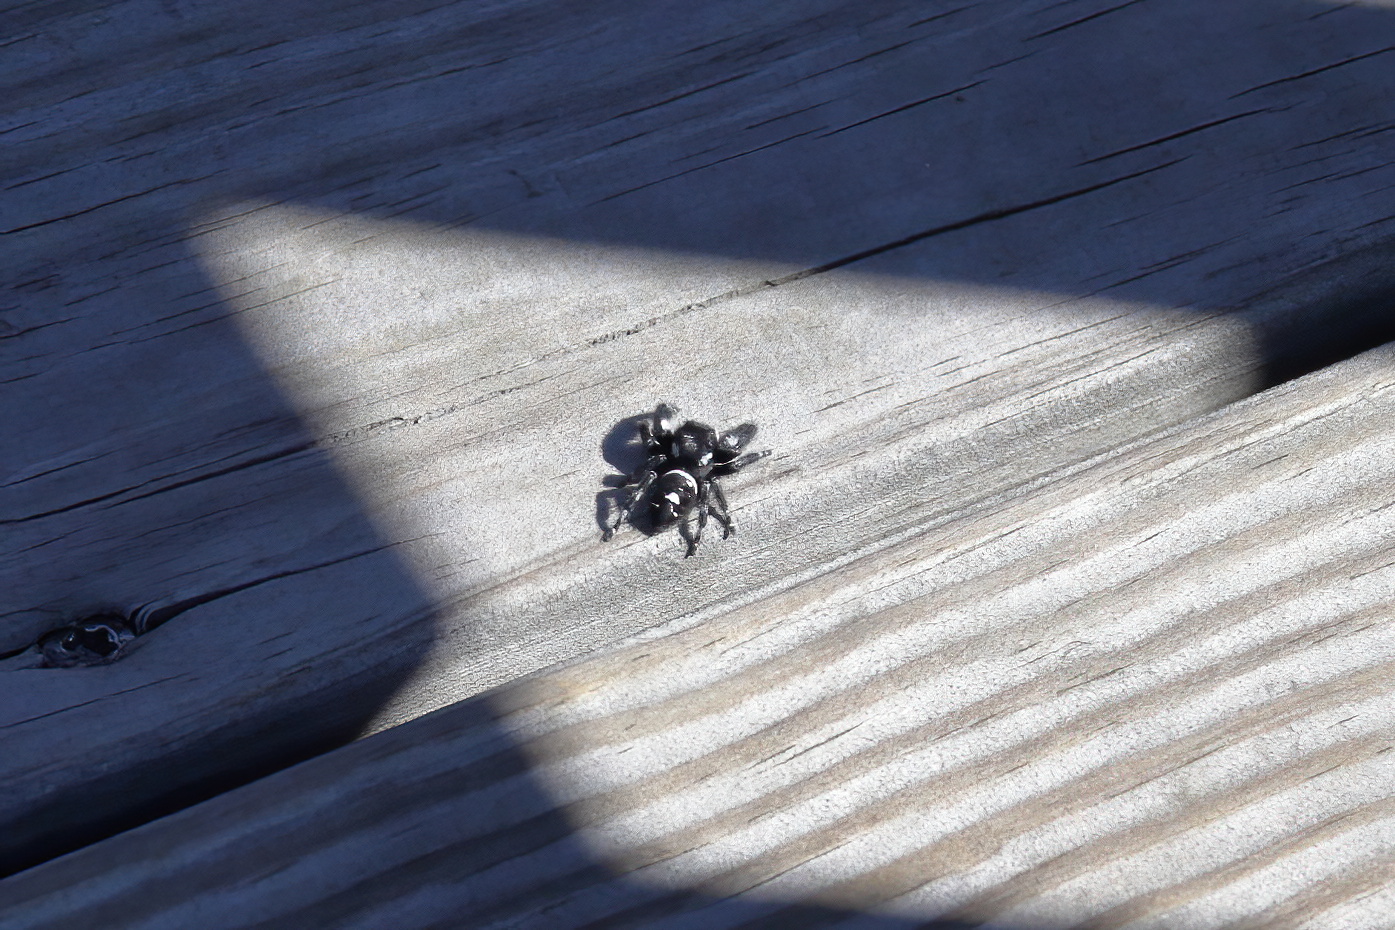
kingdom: Animalia
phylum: Arthropoda
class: Arachnida
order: Araneae
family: Salticidae
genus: Phidippus
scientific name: Phidippus audax
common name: Bold jumper
